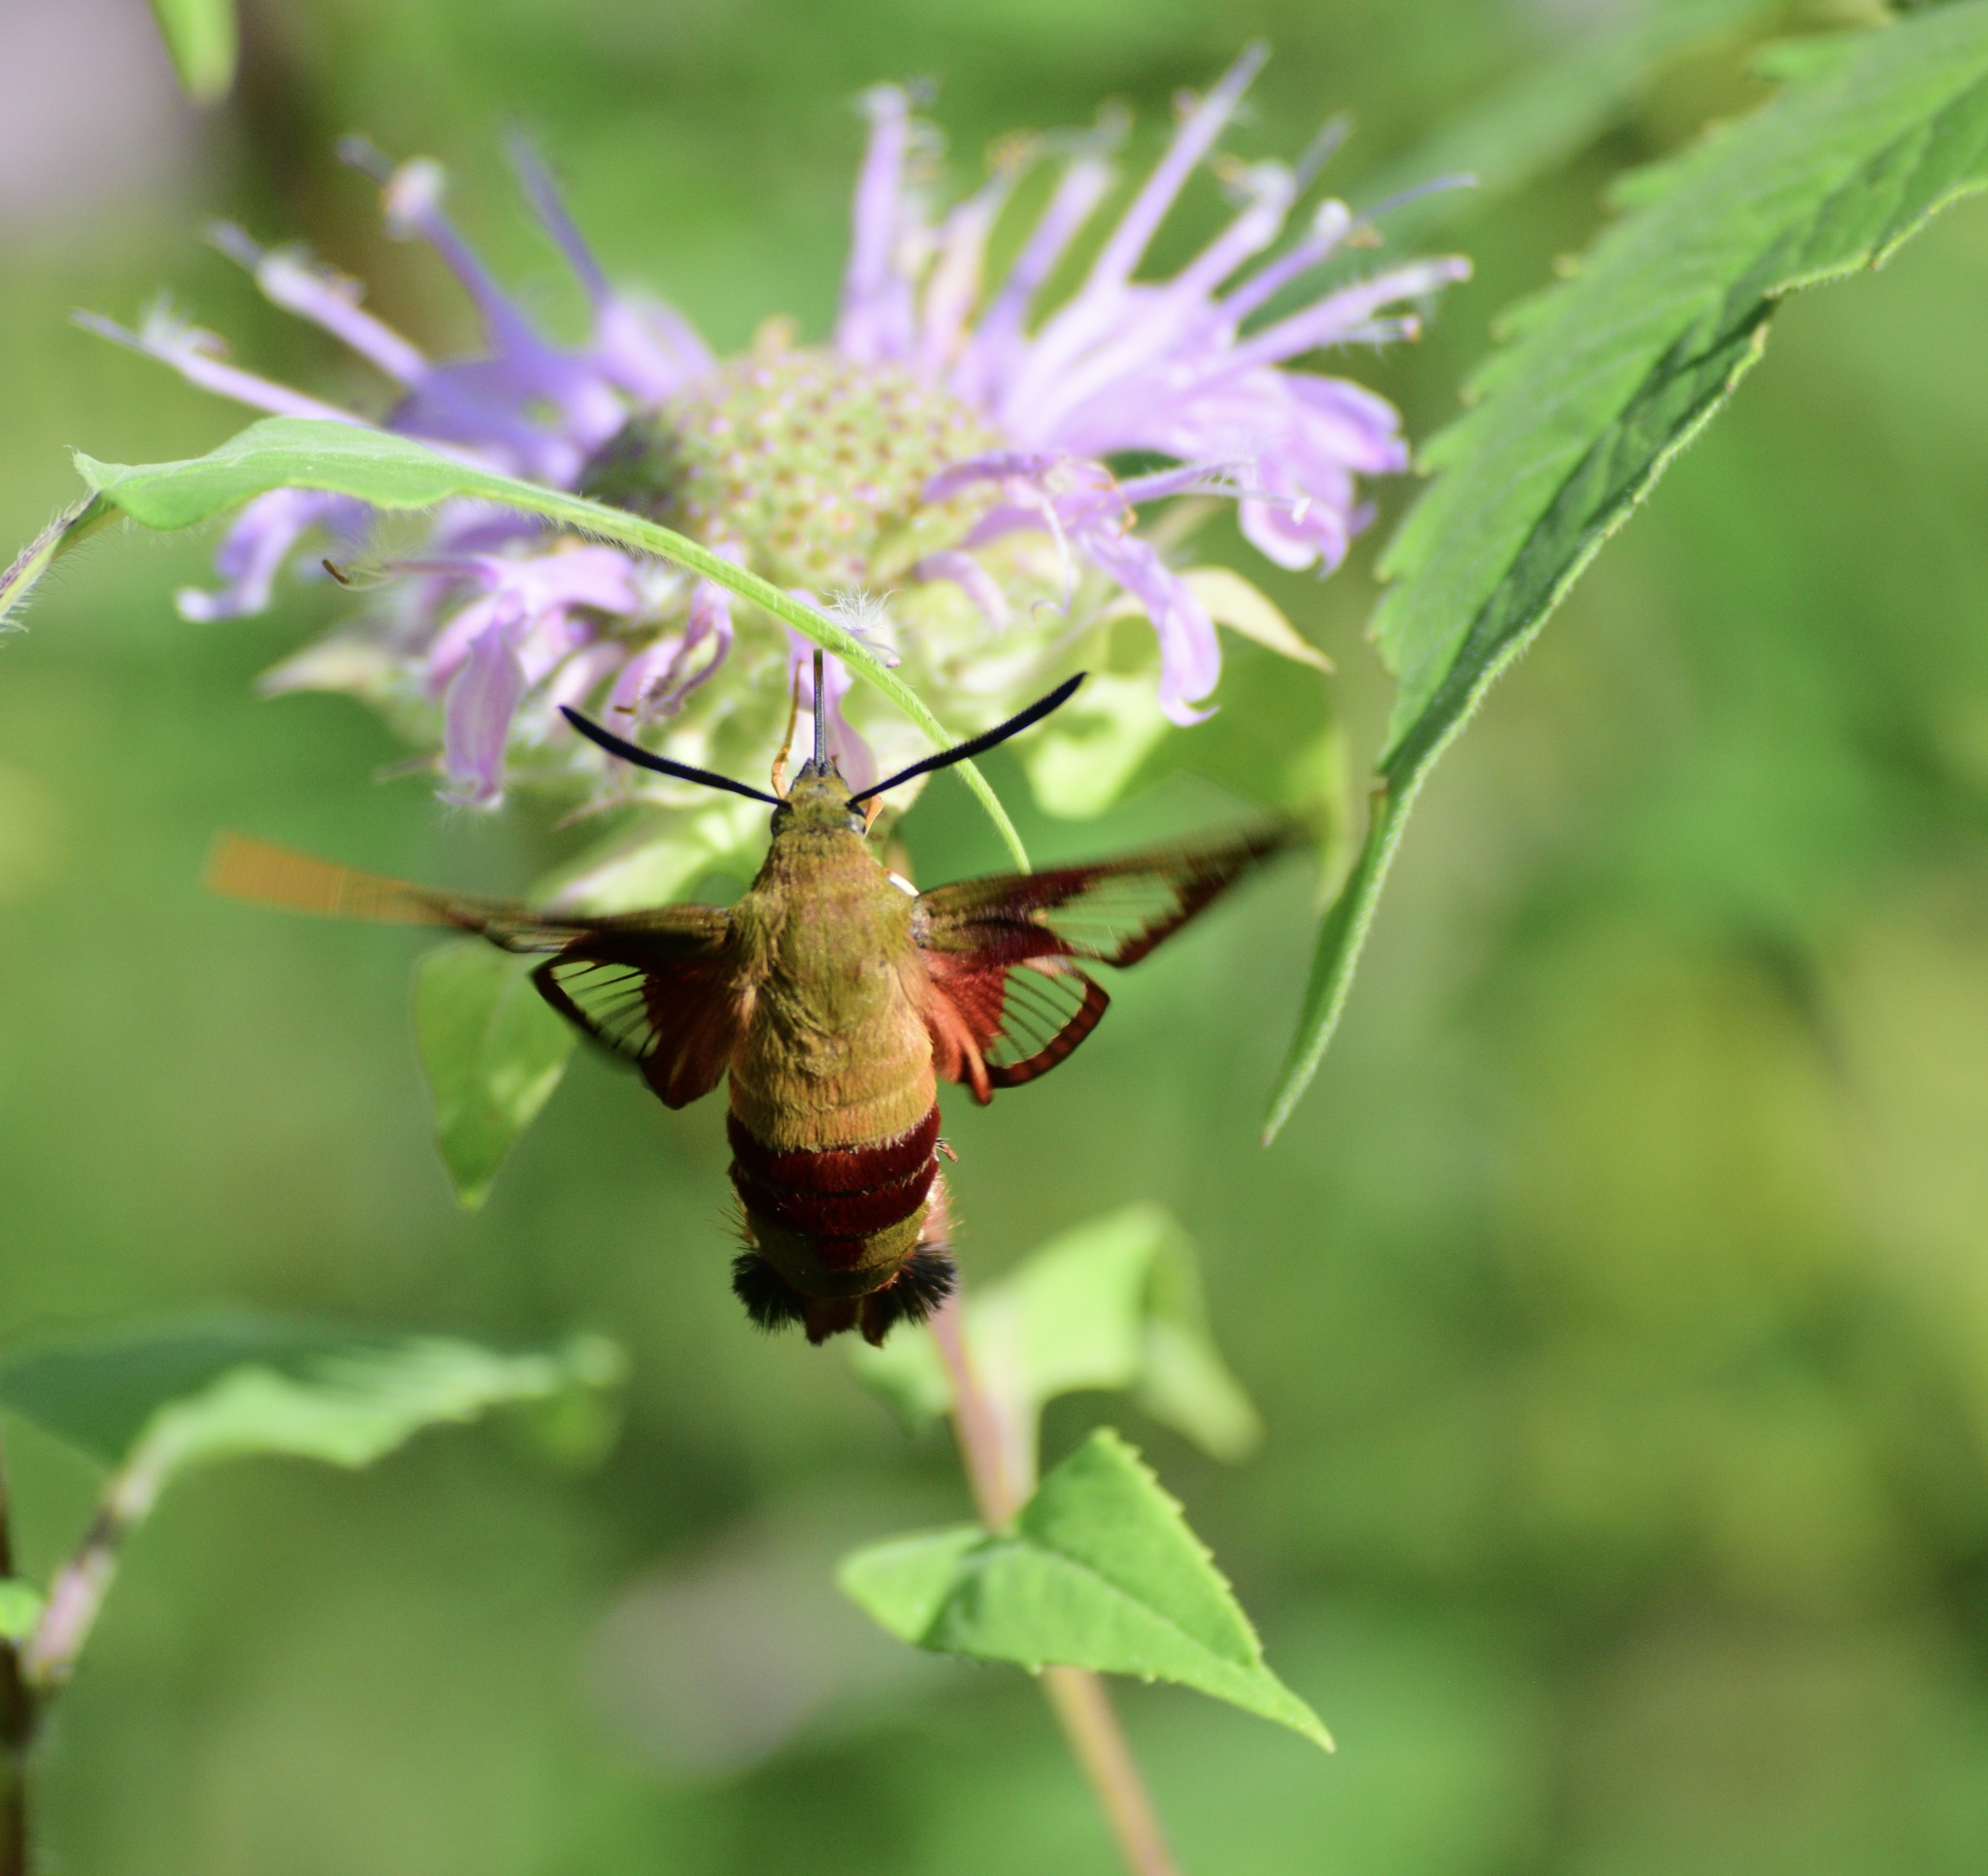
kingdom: Animalia
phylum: Arthropoda
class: Insecta
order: Lepidoptera
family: Sphingidae
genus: Hemaris
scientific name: Hemaris thysbe
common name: Common clear-wing
